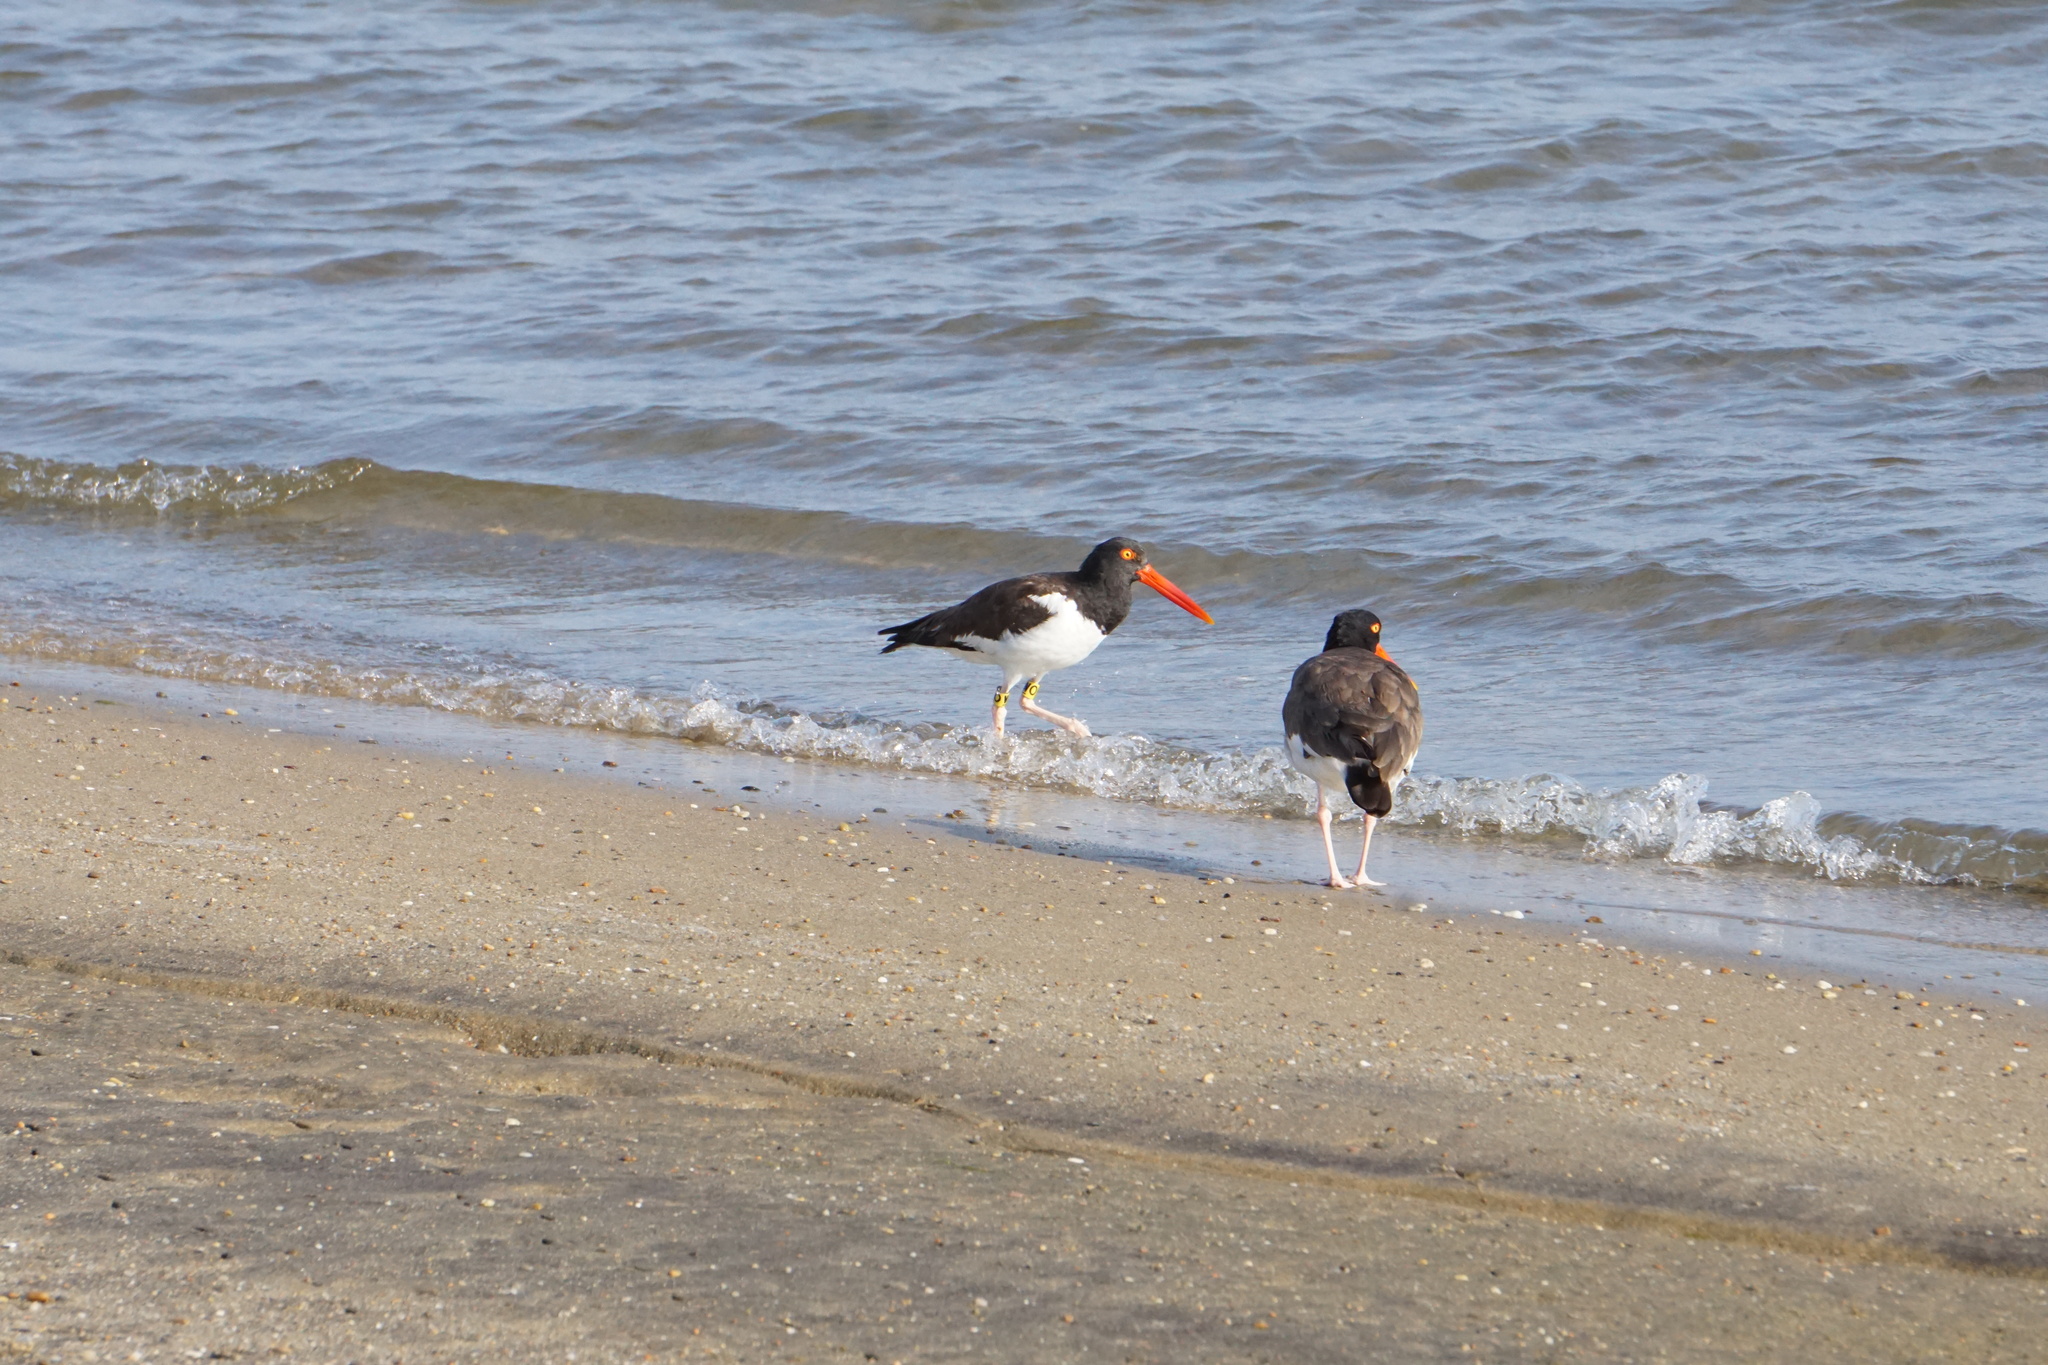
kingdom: Animalia
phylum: Chordata
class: Aves
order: Charadriiformes
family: Haematopodidae
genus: Haematopus
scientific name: Haematopus palliatus
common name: American oystercatcher
